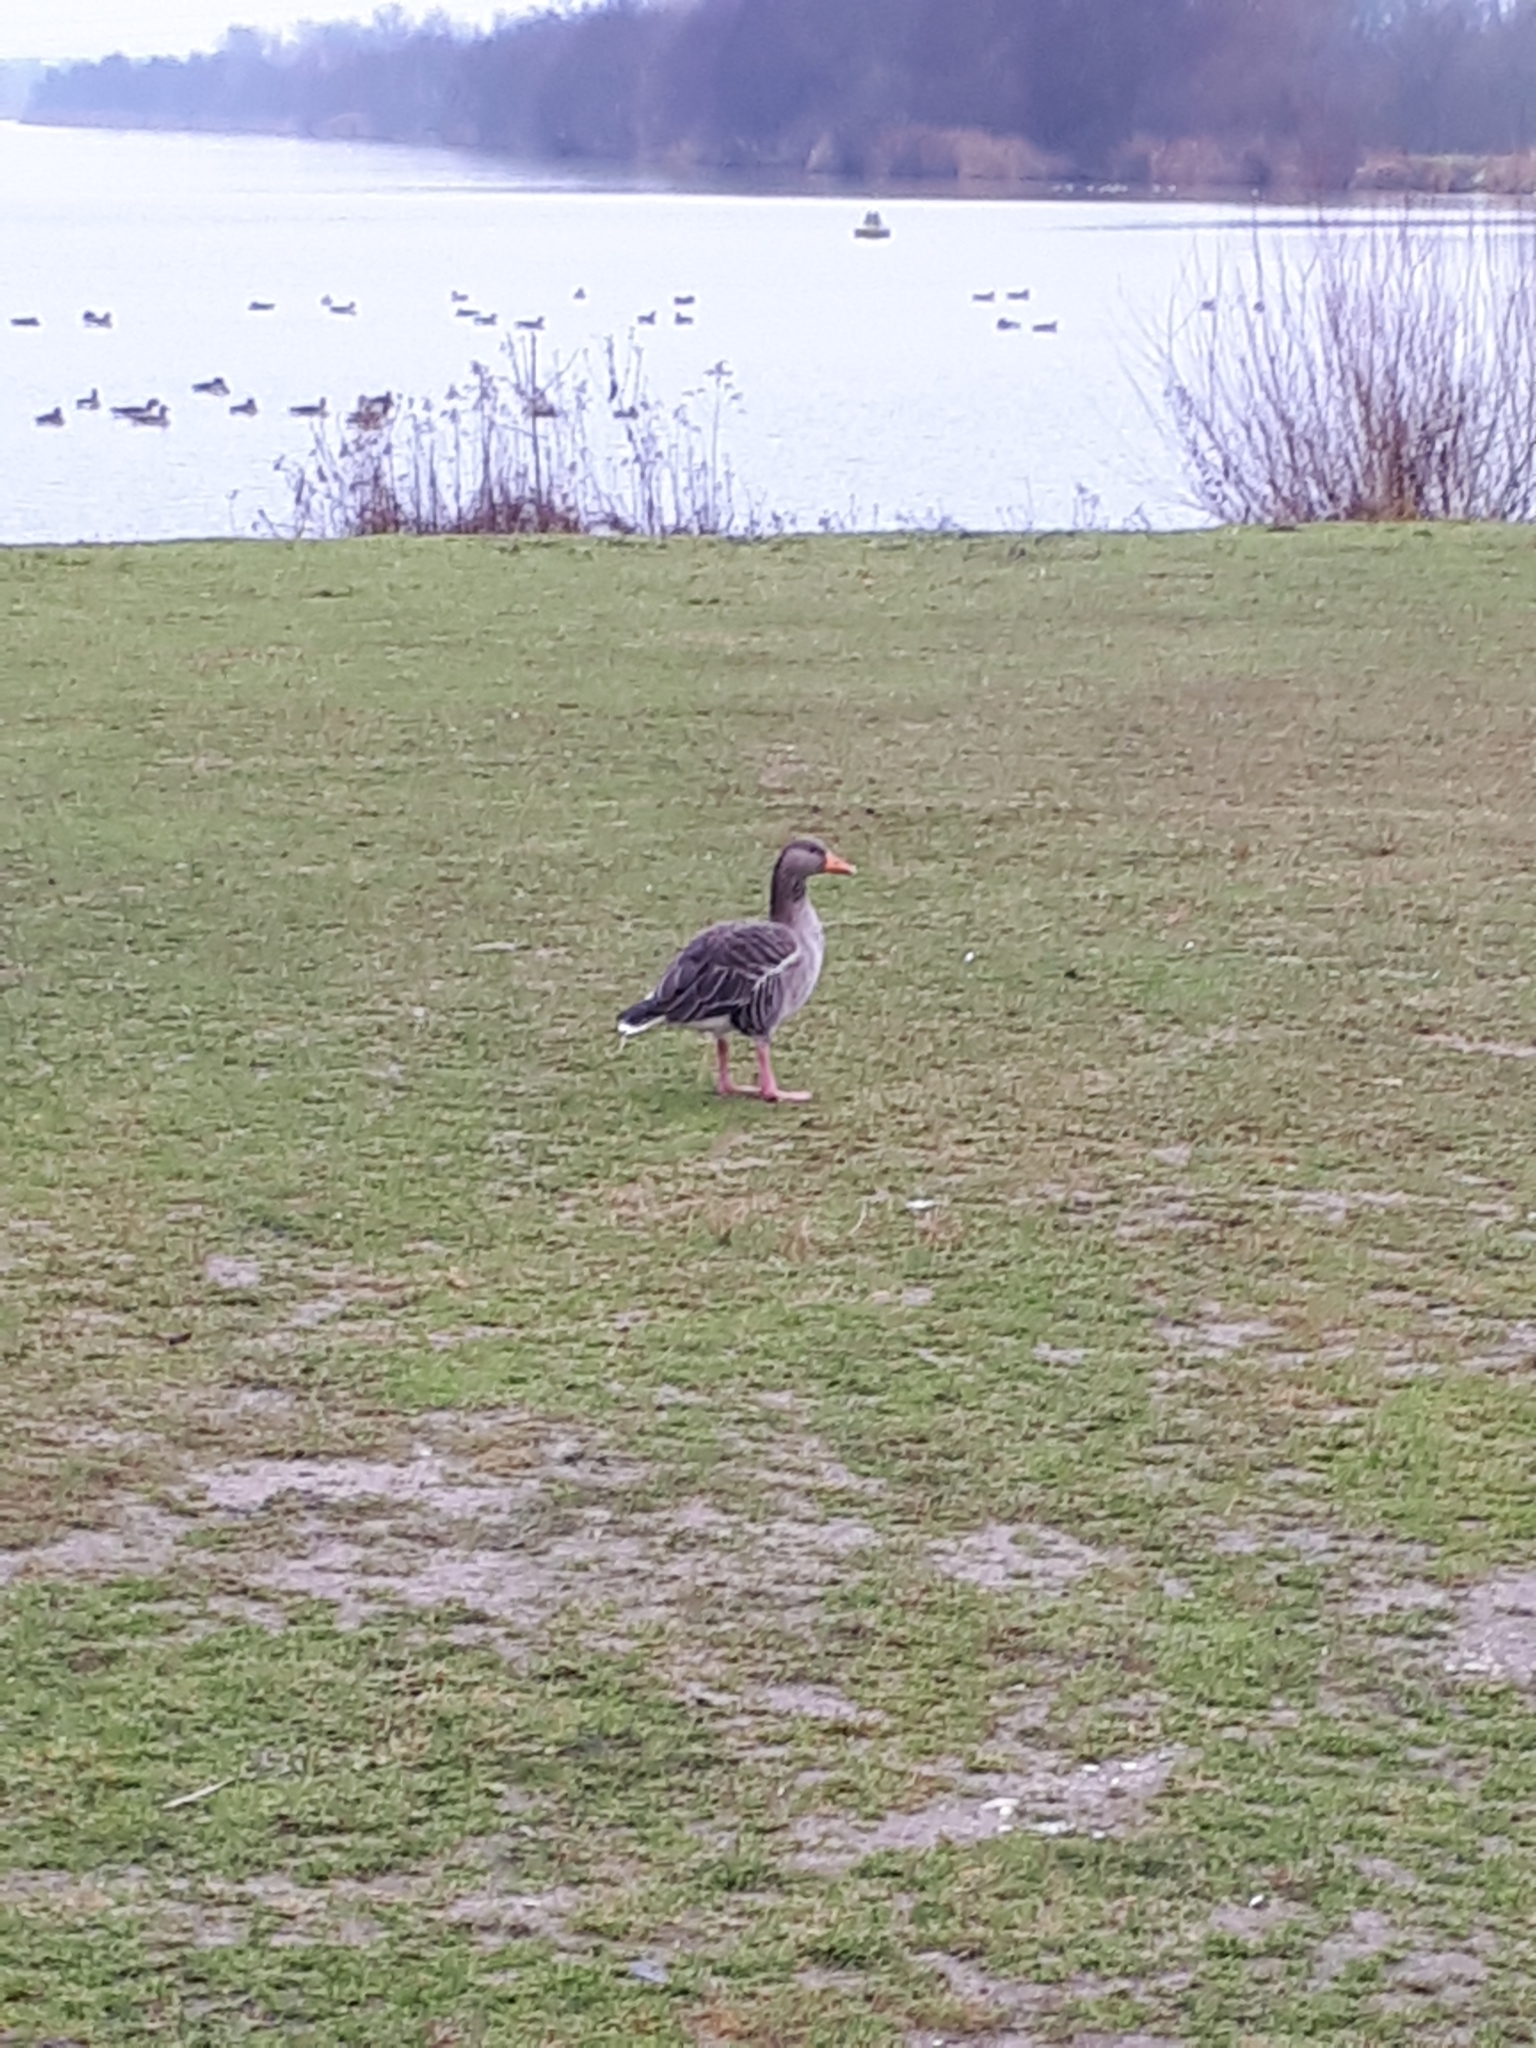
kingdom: Animalia
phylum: Chordata
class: Aves
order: Anseriformes
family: Anatidae
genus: Anser
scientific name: Anser anser
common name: Greylag goose
